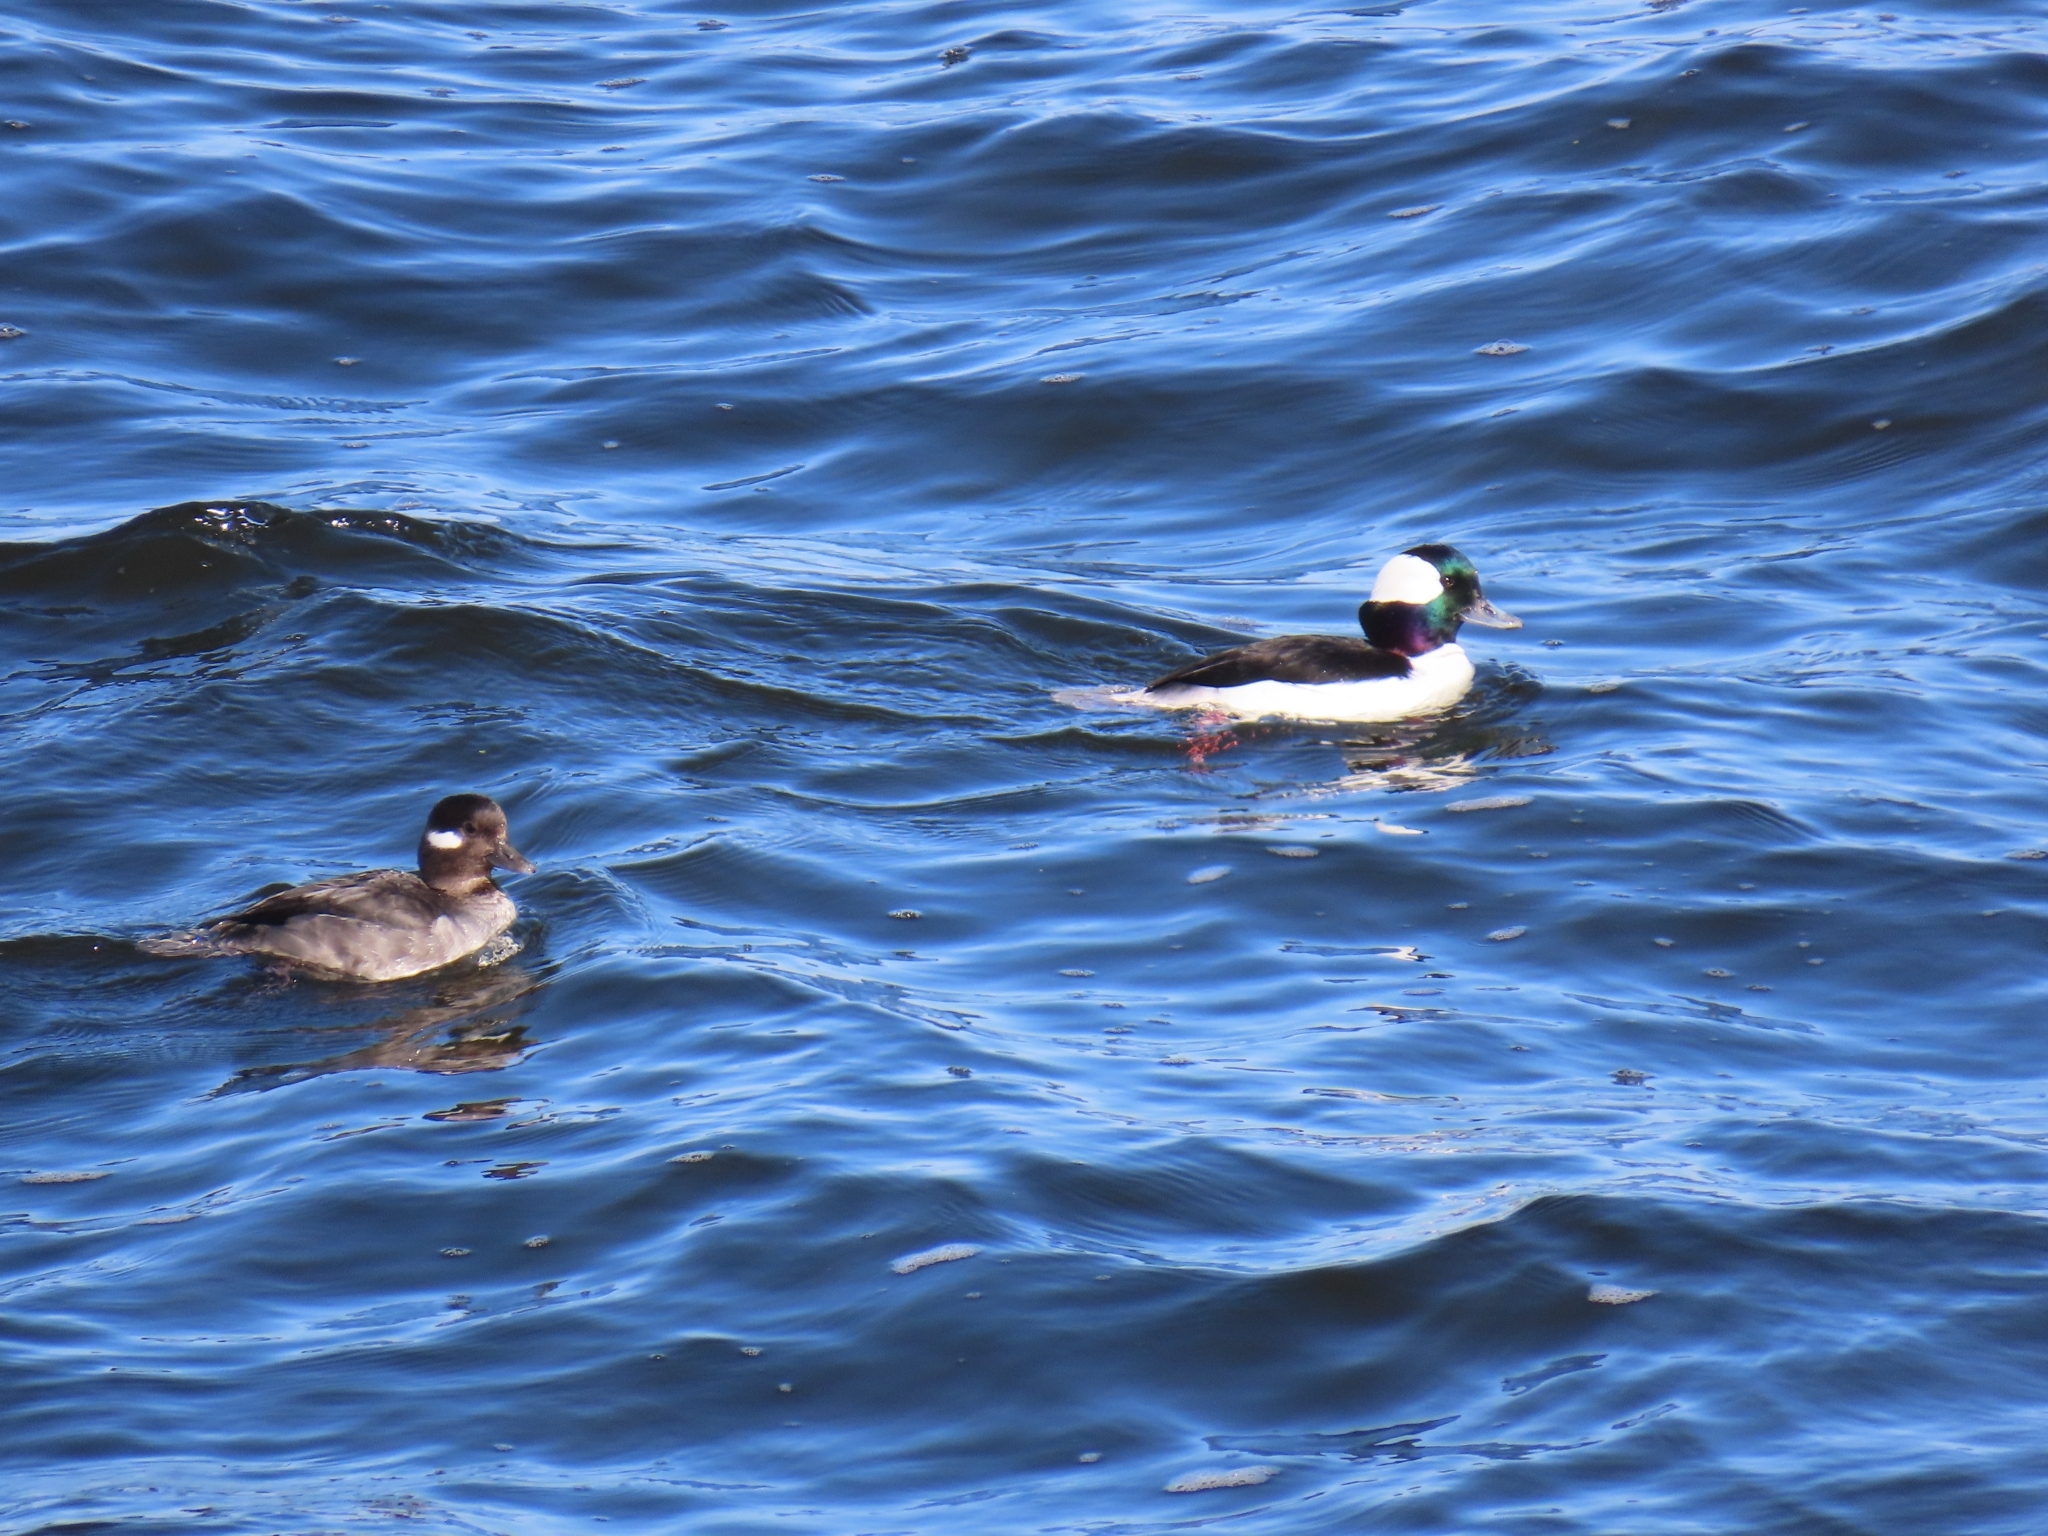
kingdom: Animalia
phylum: Chordata
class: Aves
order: Anseriformes
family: Anatidae
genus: Bucephala
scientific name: Bucephala albeola
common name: Bufflehead
